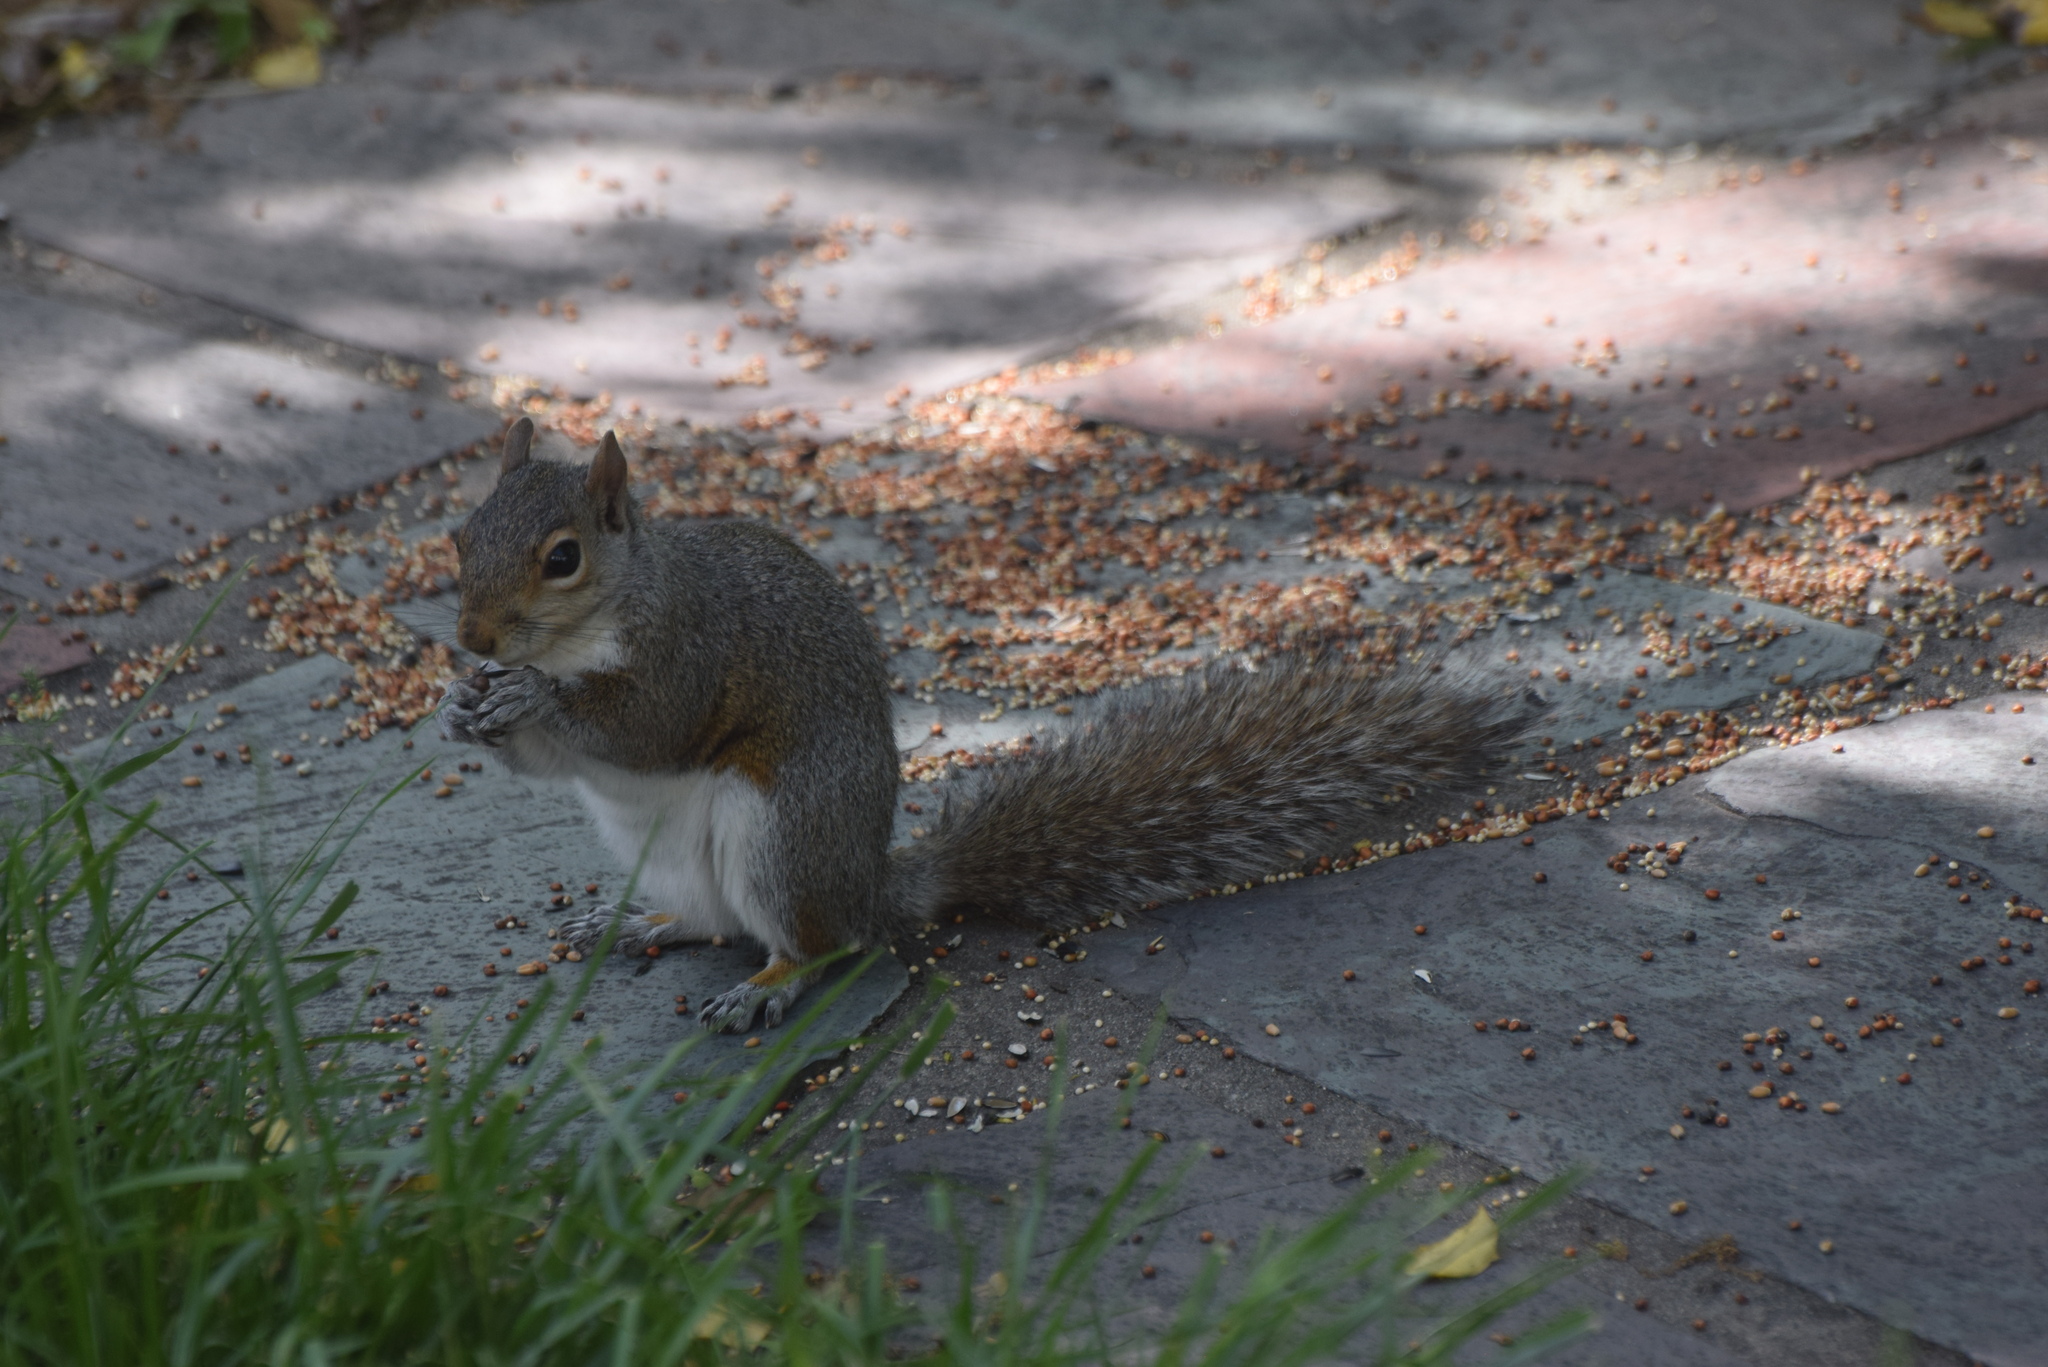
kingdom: Animalia
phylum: Chordata
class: Mammalia
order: Rodentia
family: Sciuridae
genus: Sciurus
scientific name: Sciurus carolinensis
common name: Eastern gray squirrel
